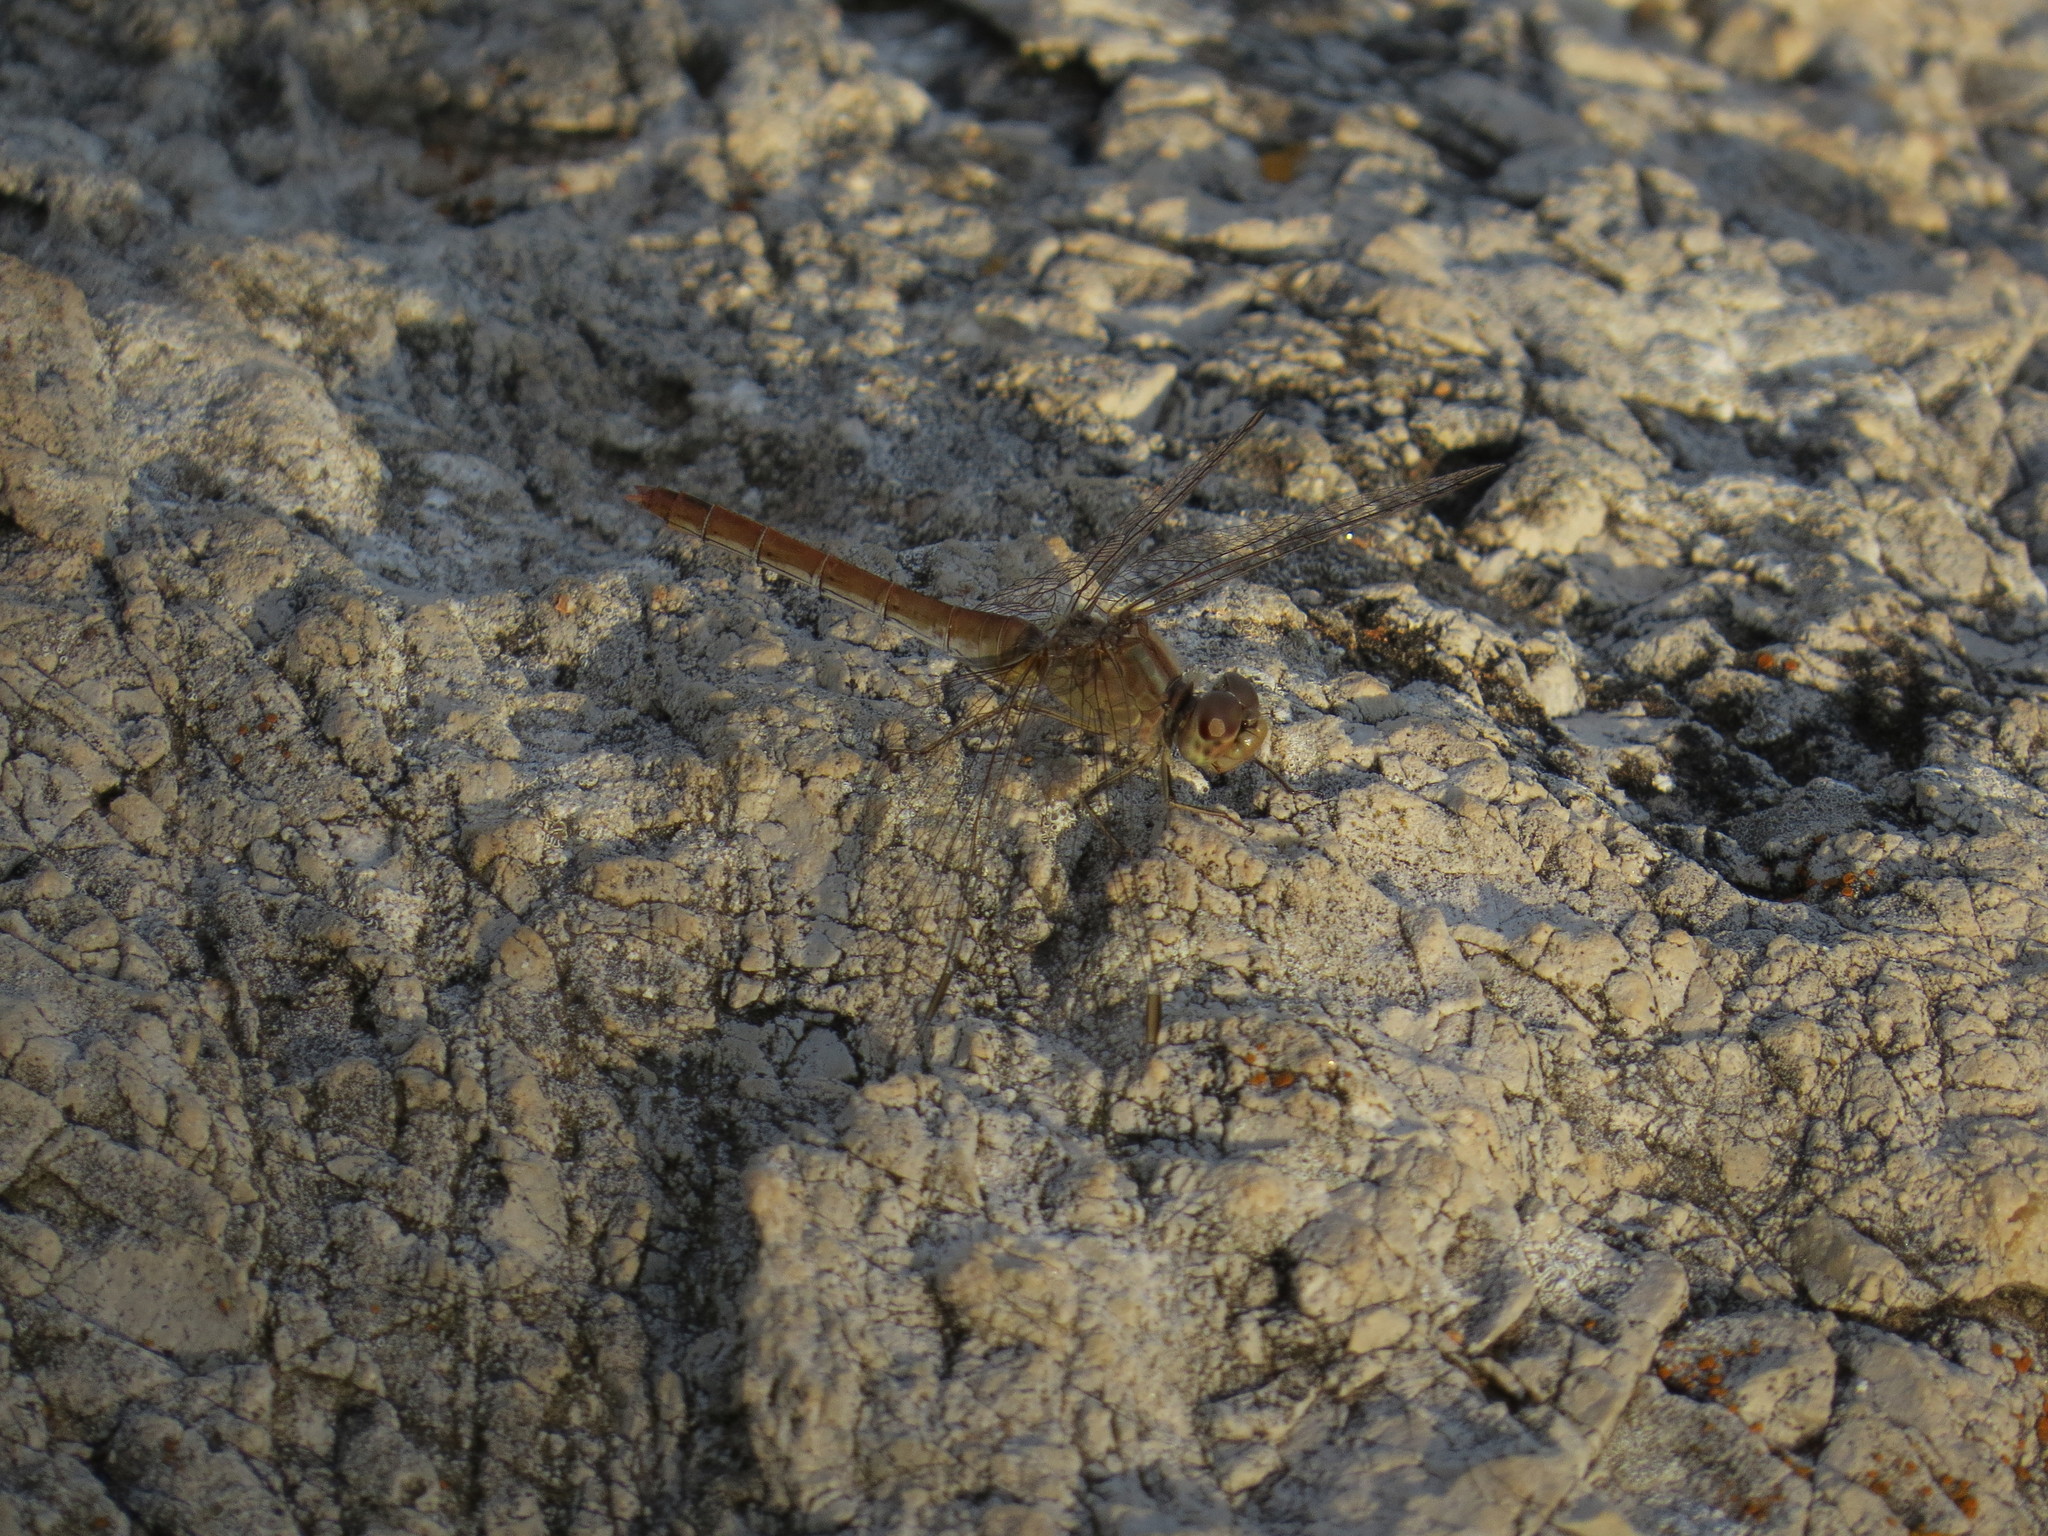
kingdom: Animalia
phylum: Arthropoda
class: Insecta
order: Odonata
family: Libellulidae
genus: Sympetrum
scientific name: Sympetrum meridionale
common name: Southern darter
